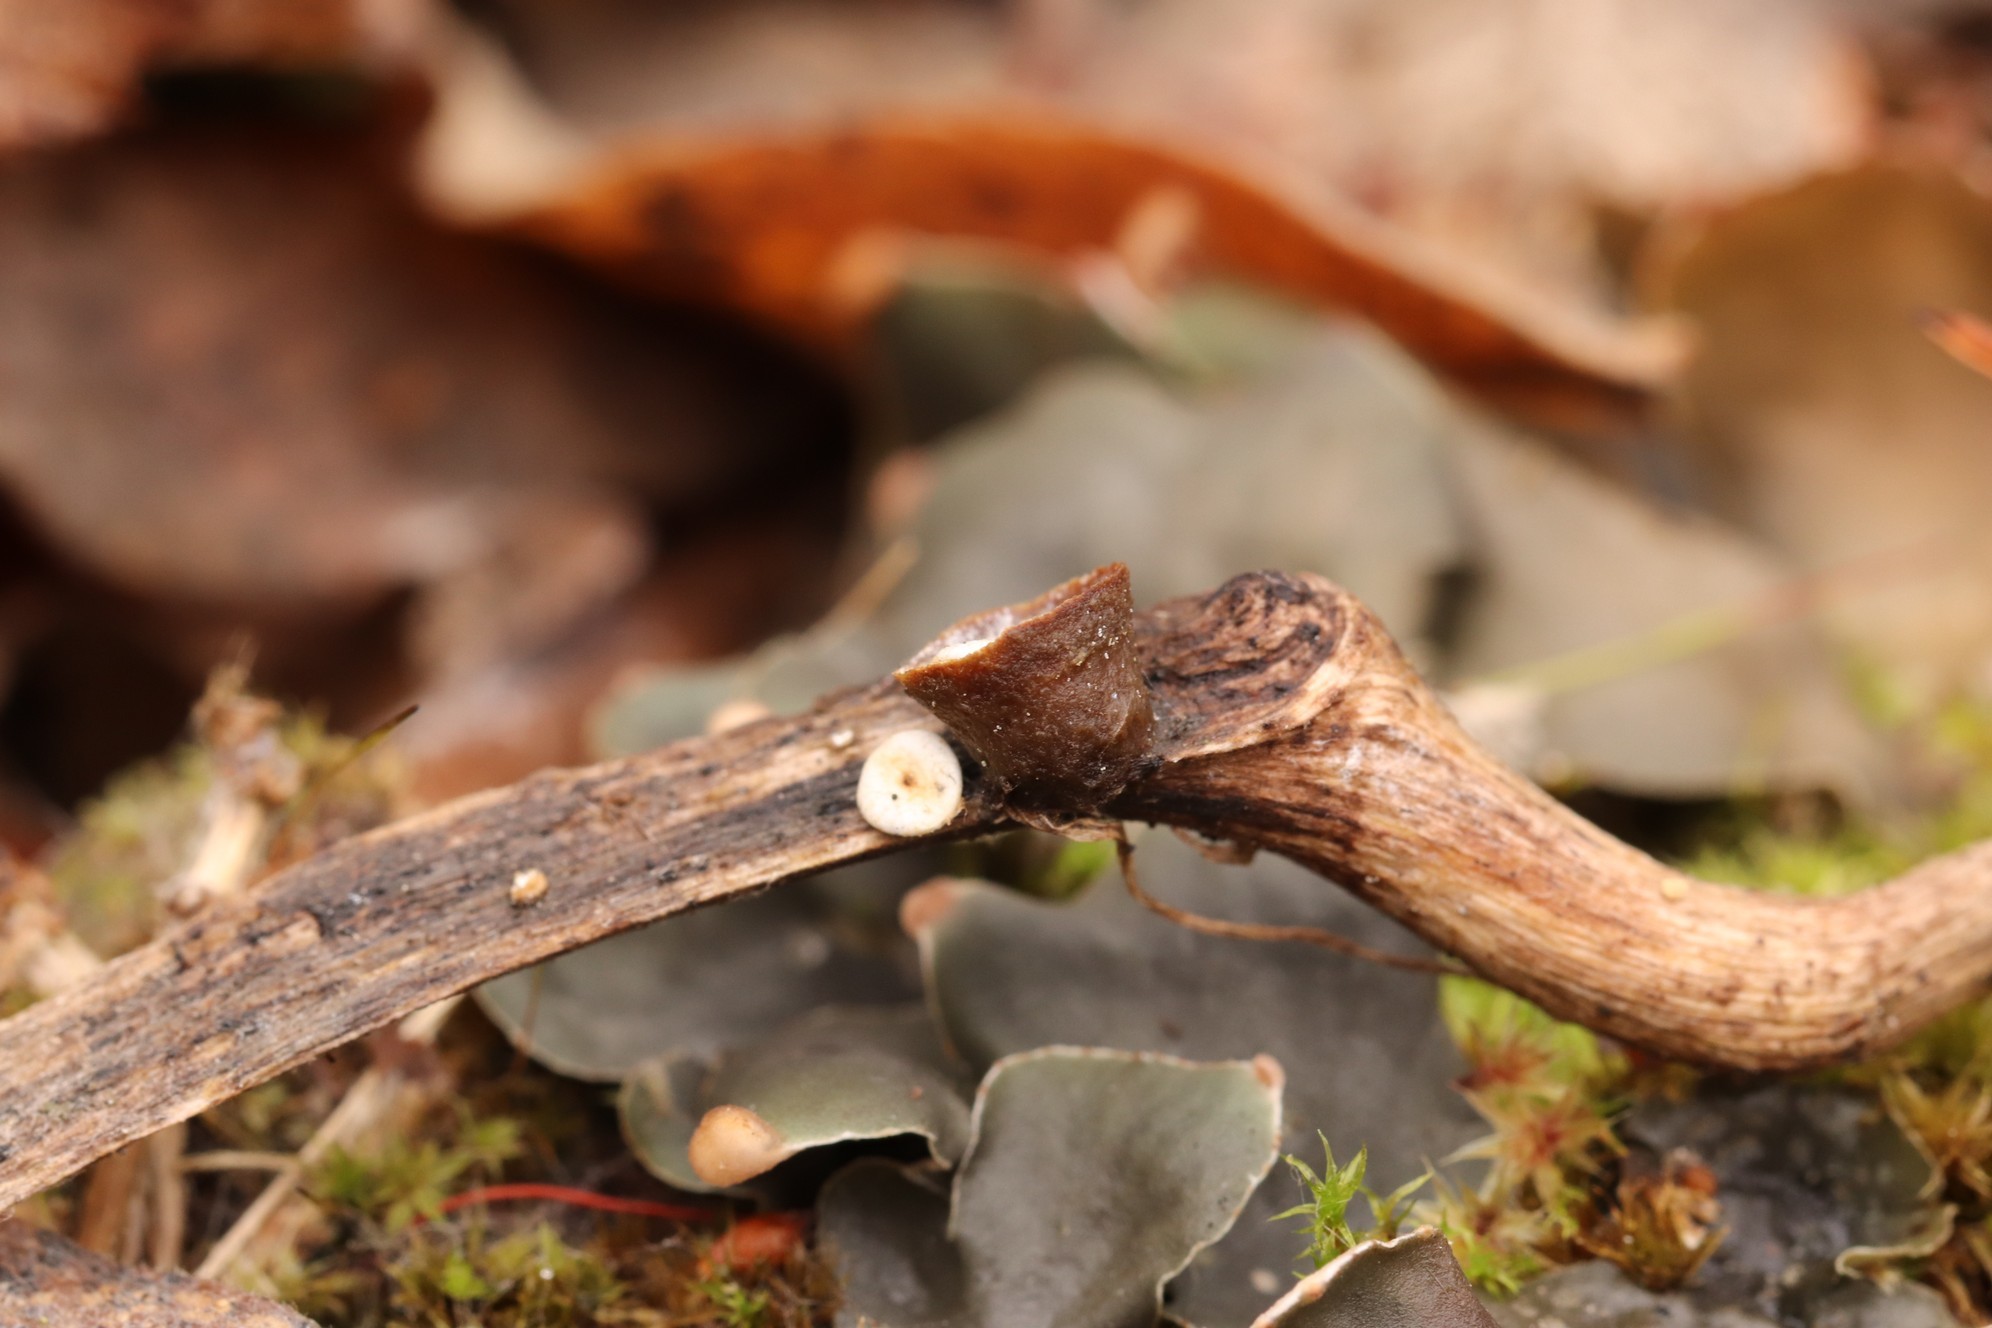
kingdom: Fungi
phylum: Basidiomycota
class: Agaricomycetes
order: Agaricales
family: Nidulariaceae
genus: Crucibulum
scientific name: Crucibulum laeve
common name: Common bird's nest
